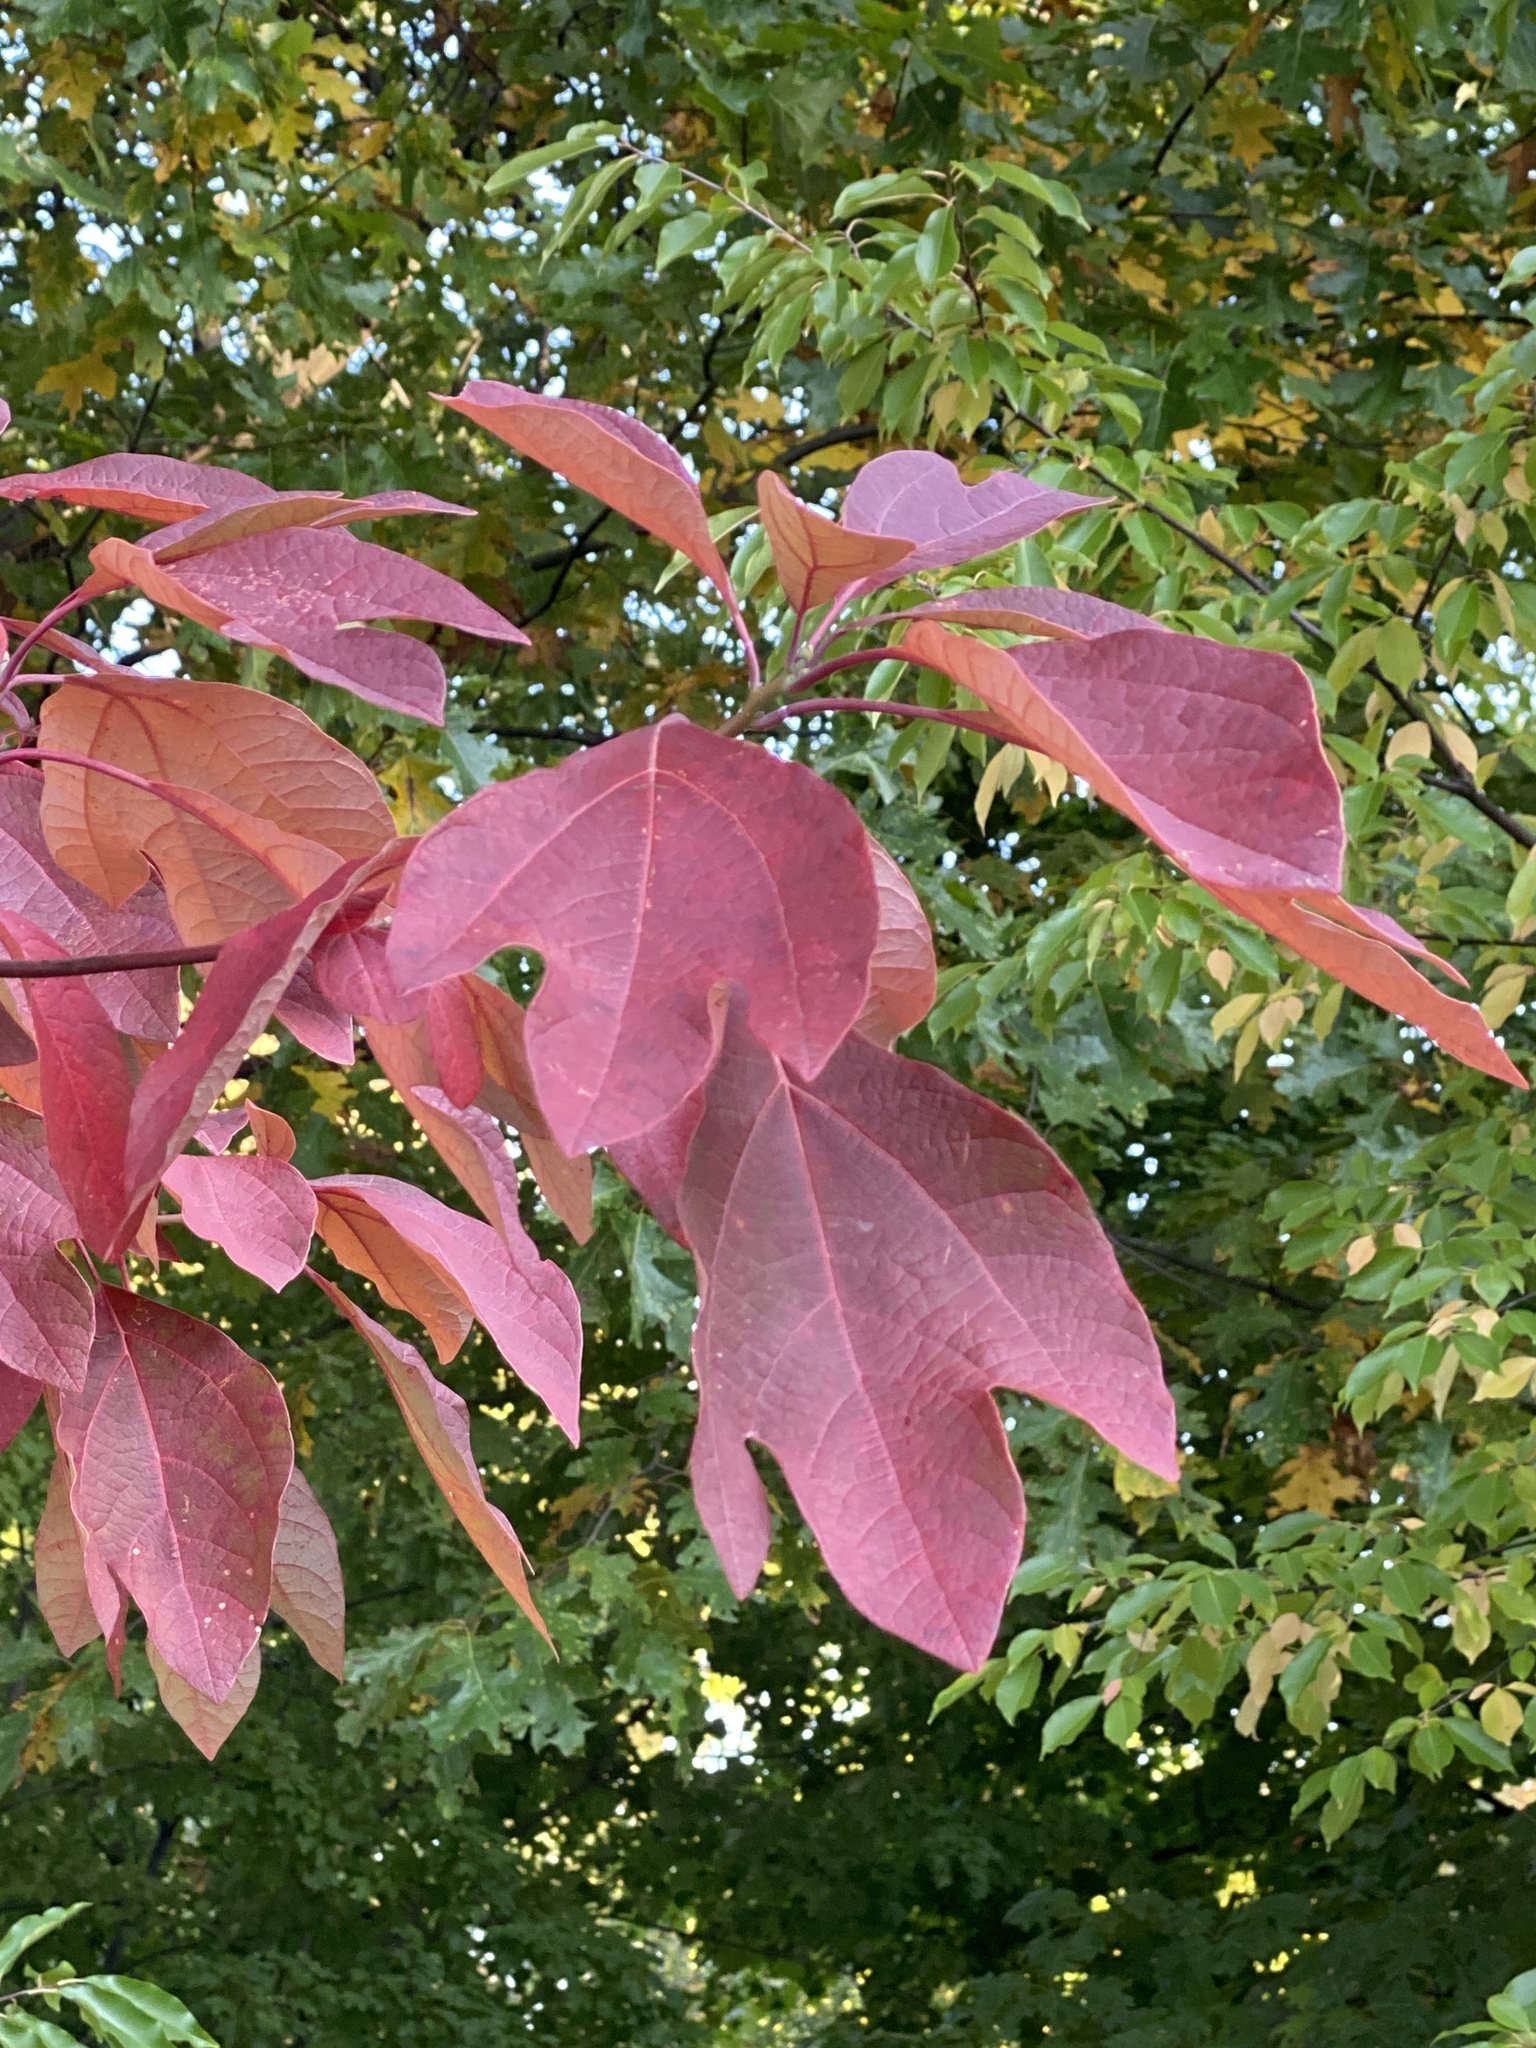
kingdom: Plantae
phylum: Tracheophyta
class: Magnoliopsida
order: Laurales
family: Lauraceae
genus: Sassafras
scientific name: Sassafras albidum
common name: Sassafras
